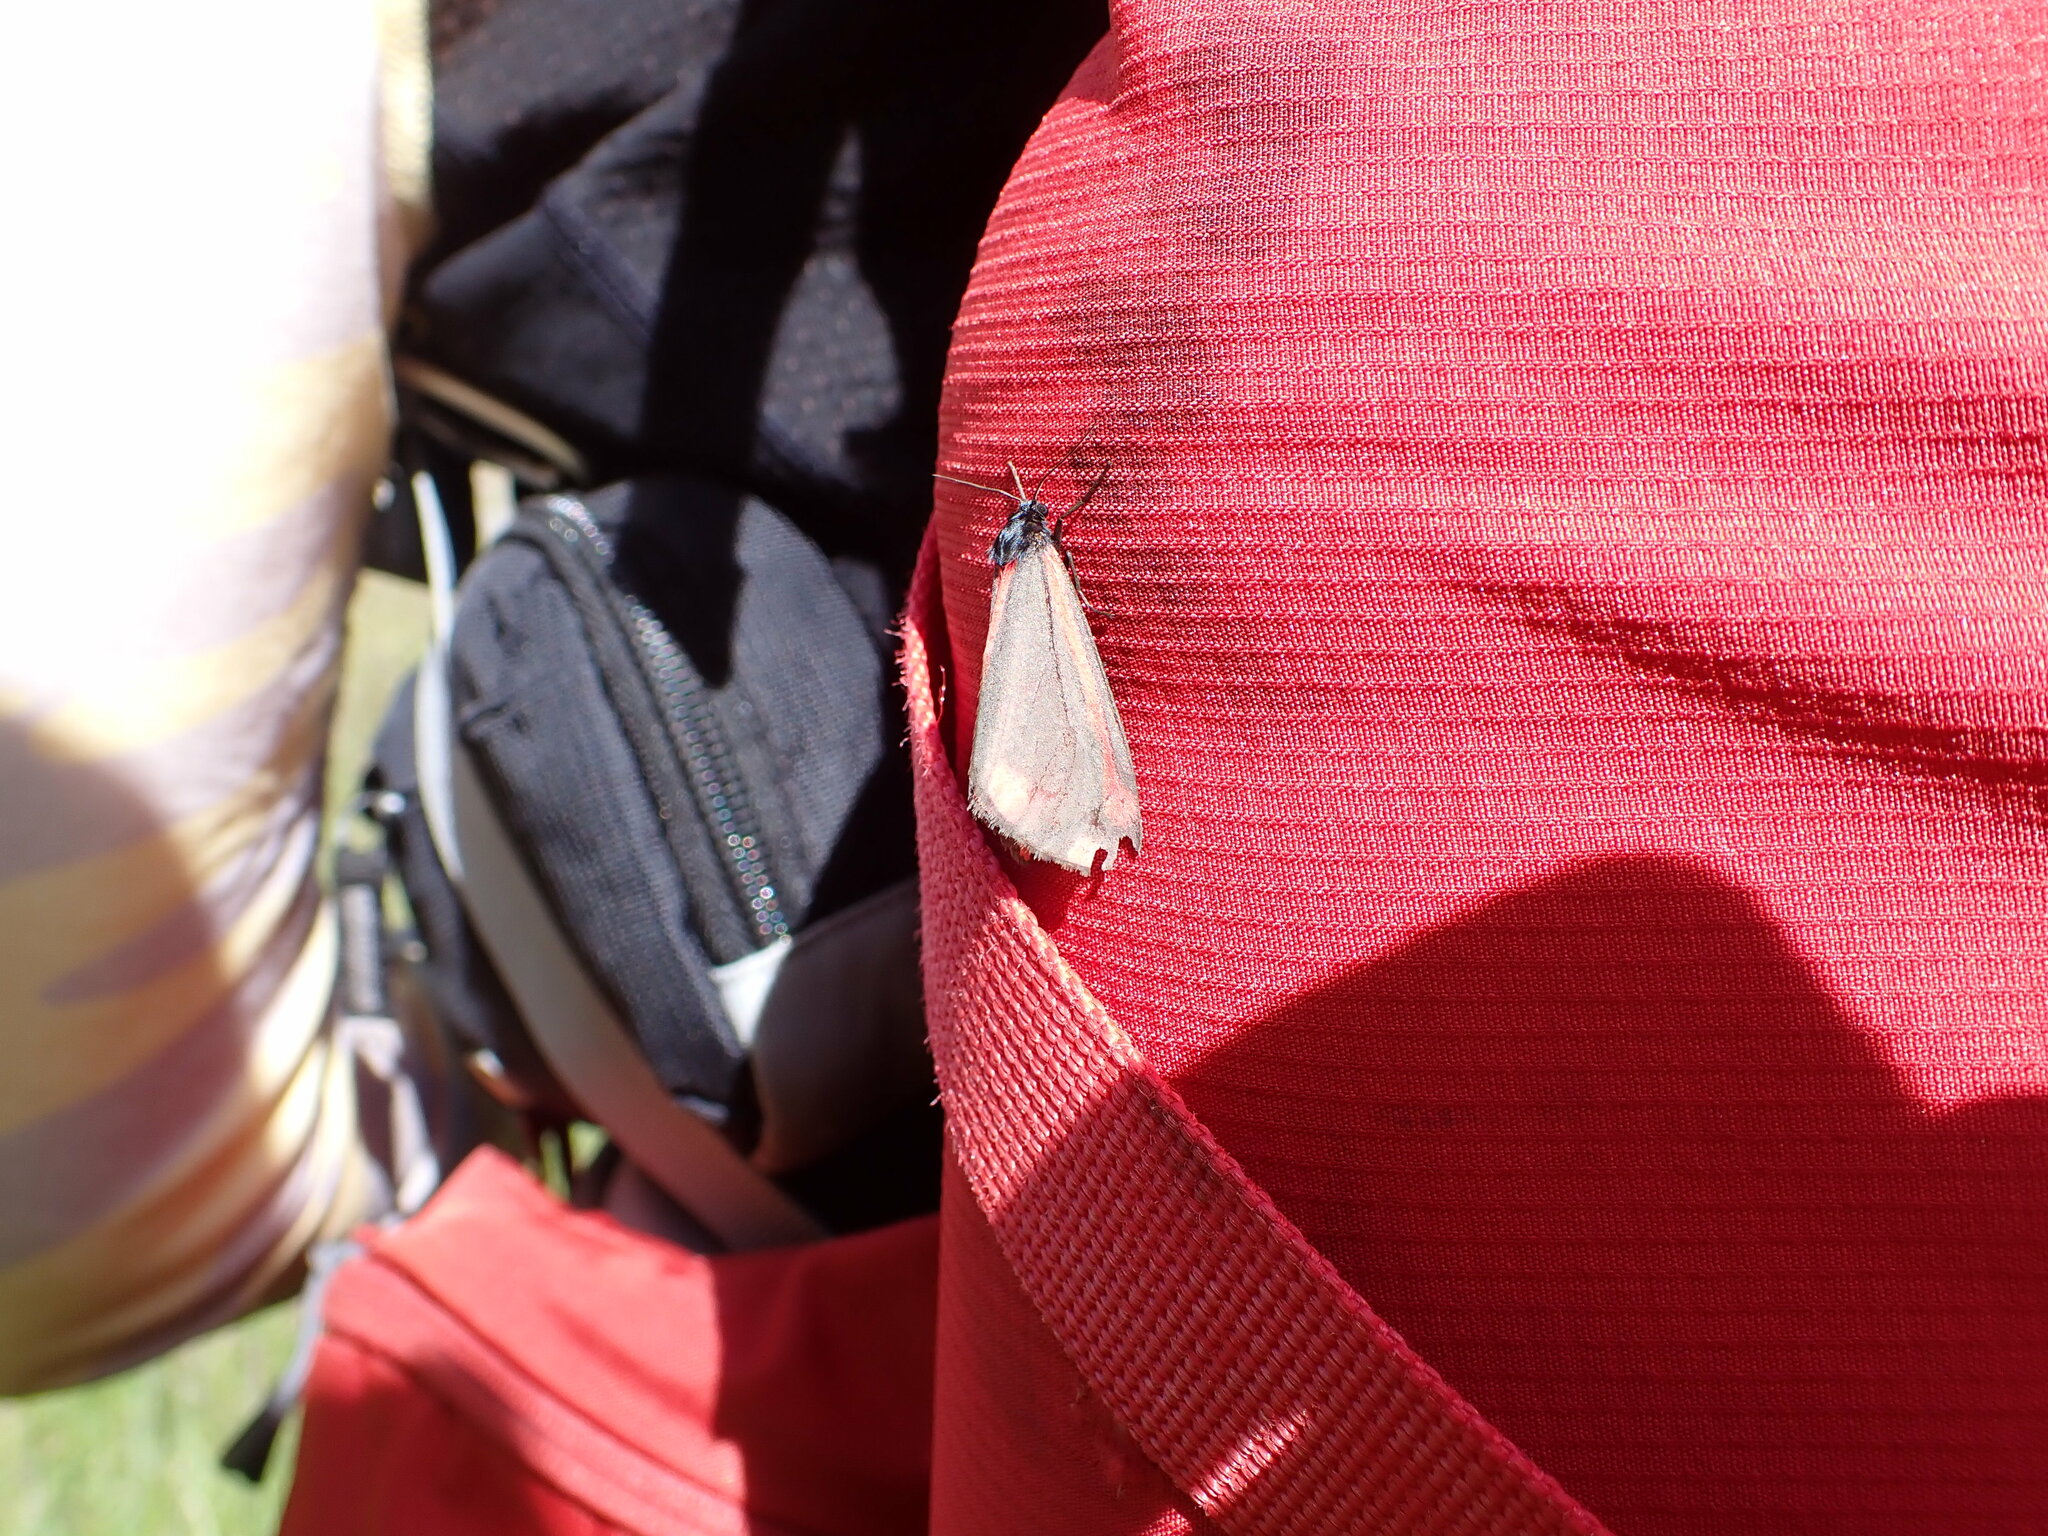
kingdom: Animalia
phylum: Arthropoda
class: Insecta
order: Lepidoptera
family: Erebidae
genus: Tyria
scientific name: Tyria jacobaeae
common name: Cinnabar
